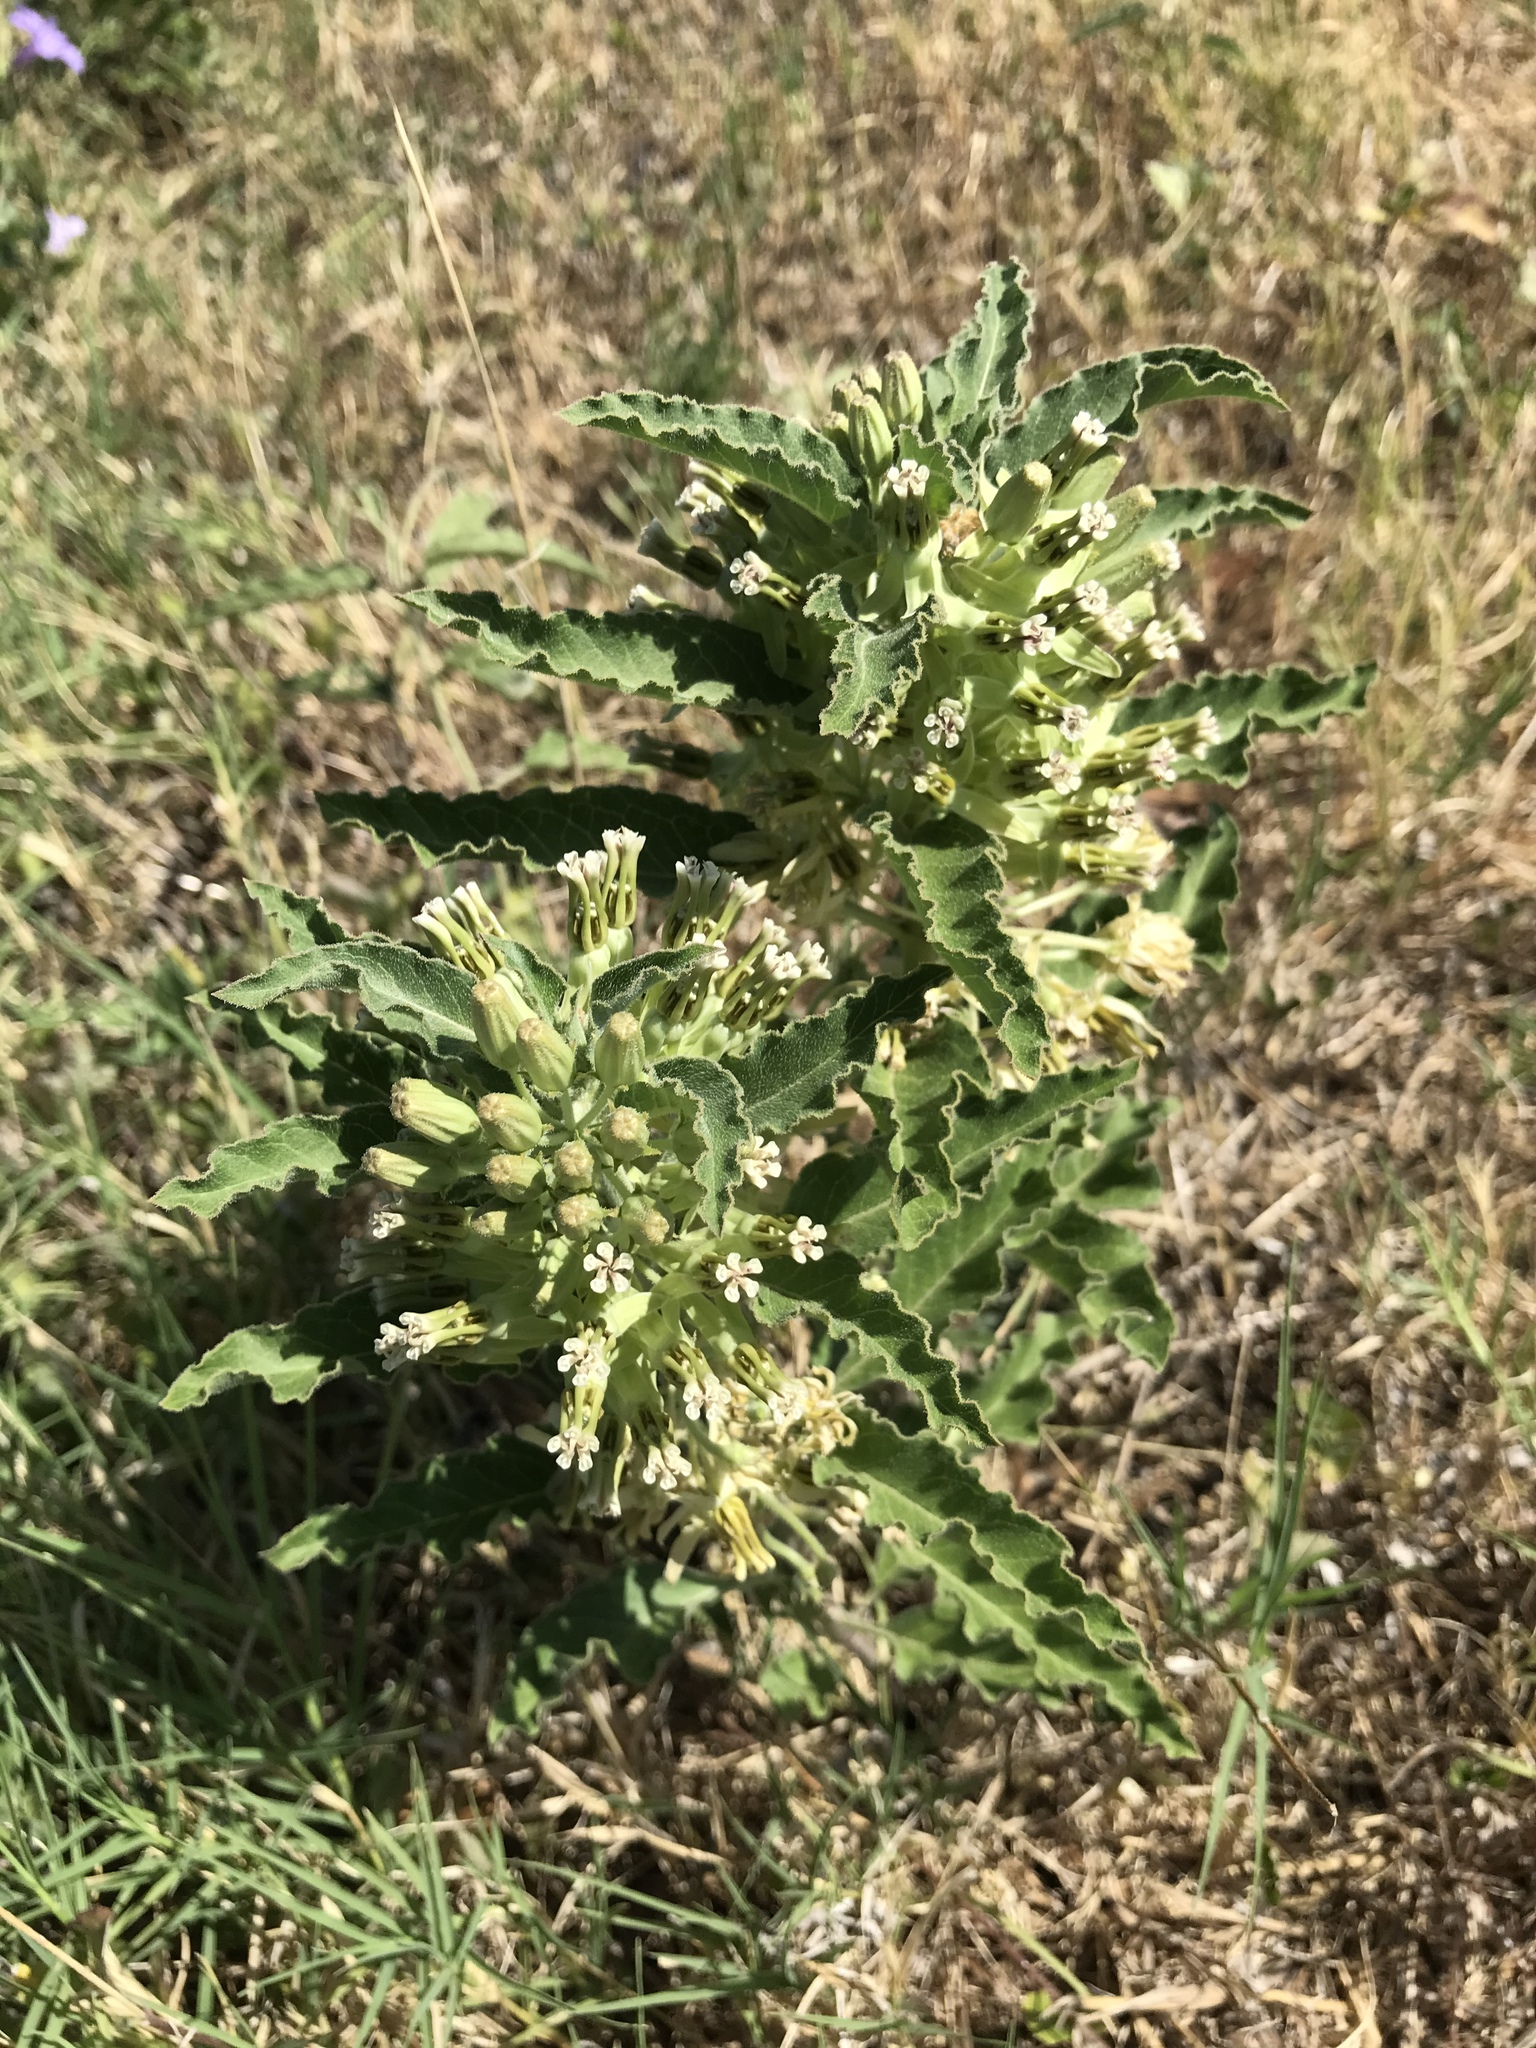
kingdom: Plantae
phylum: Tracheophyta
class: Magnoliopsida
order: Gentianales
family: Apocynaceae
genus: Asclepias
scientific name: Asclepias oenotheroides
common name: Zizotes milkweed
